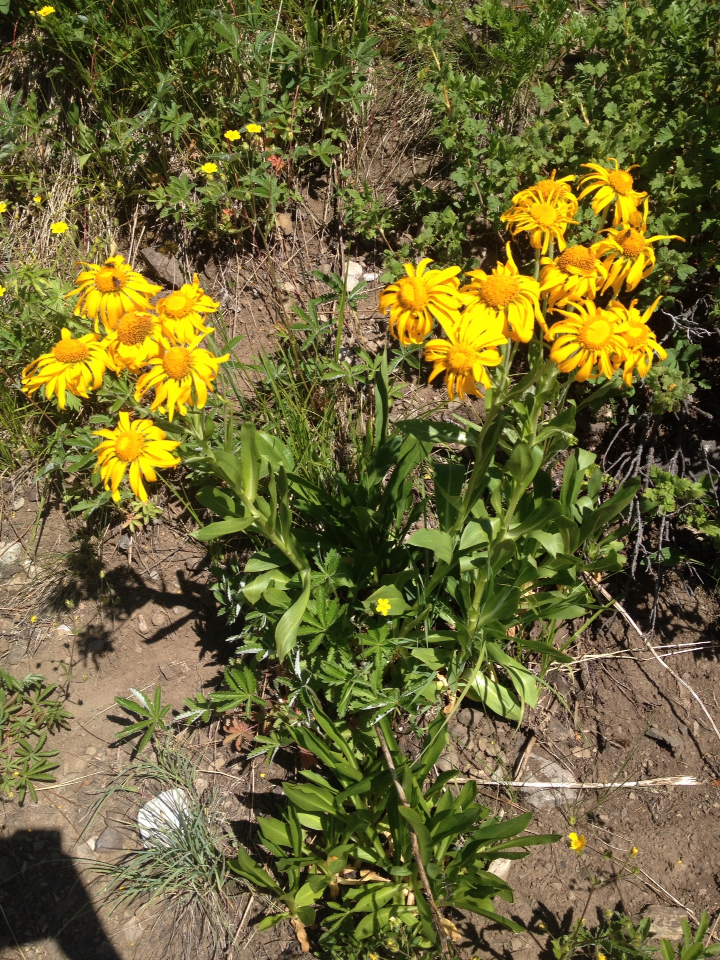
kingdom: Plantae
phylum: Tracheophyta
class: Magnoliopsida
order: Asterales
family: Asteraceae
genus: Hymenoxys
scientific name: Hymenoxys hoopesii
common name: Orange-sneezeweed
